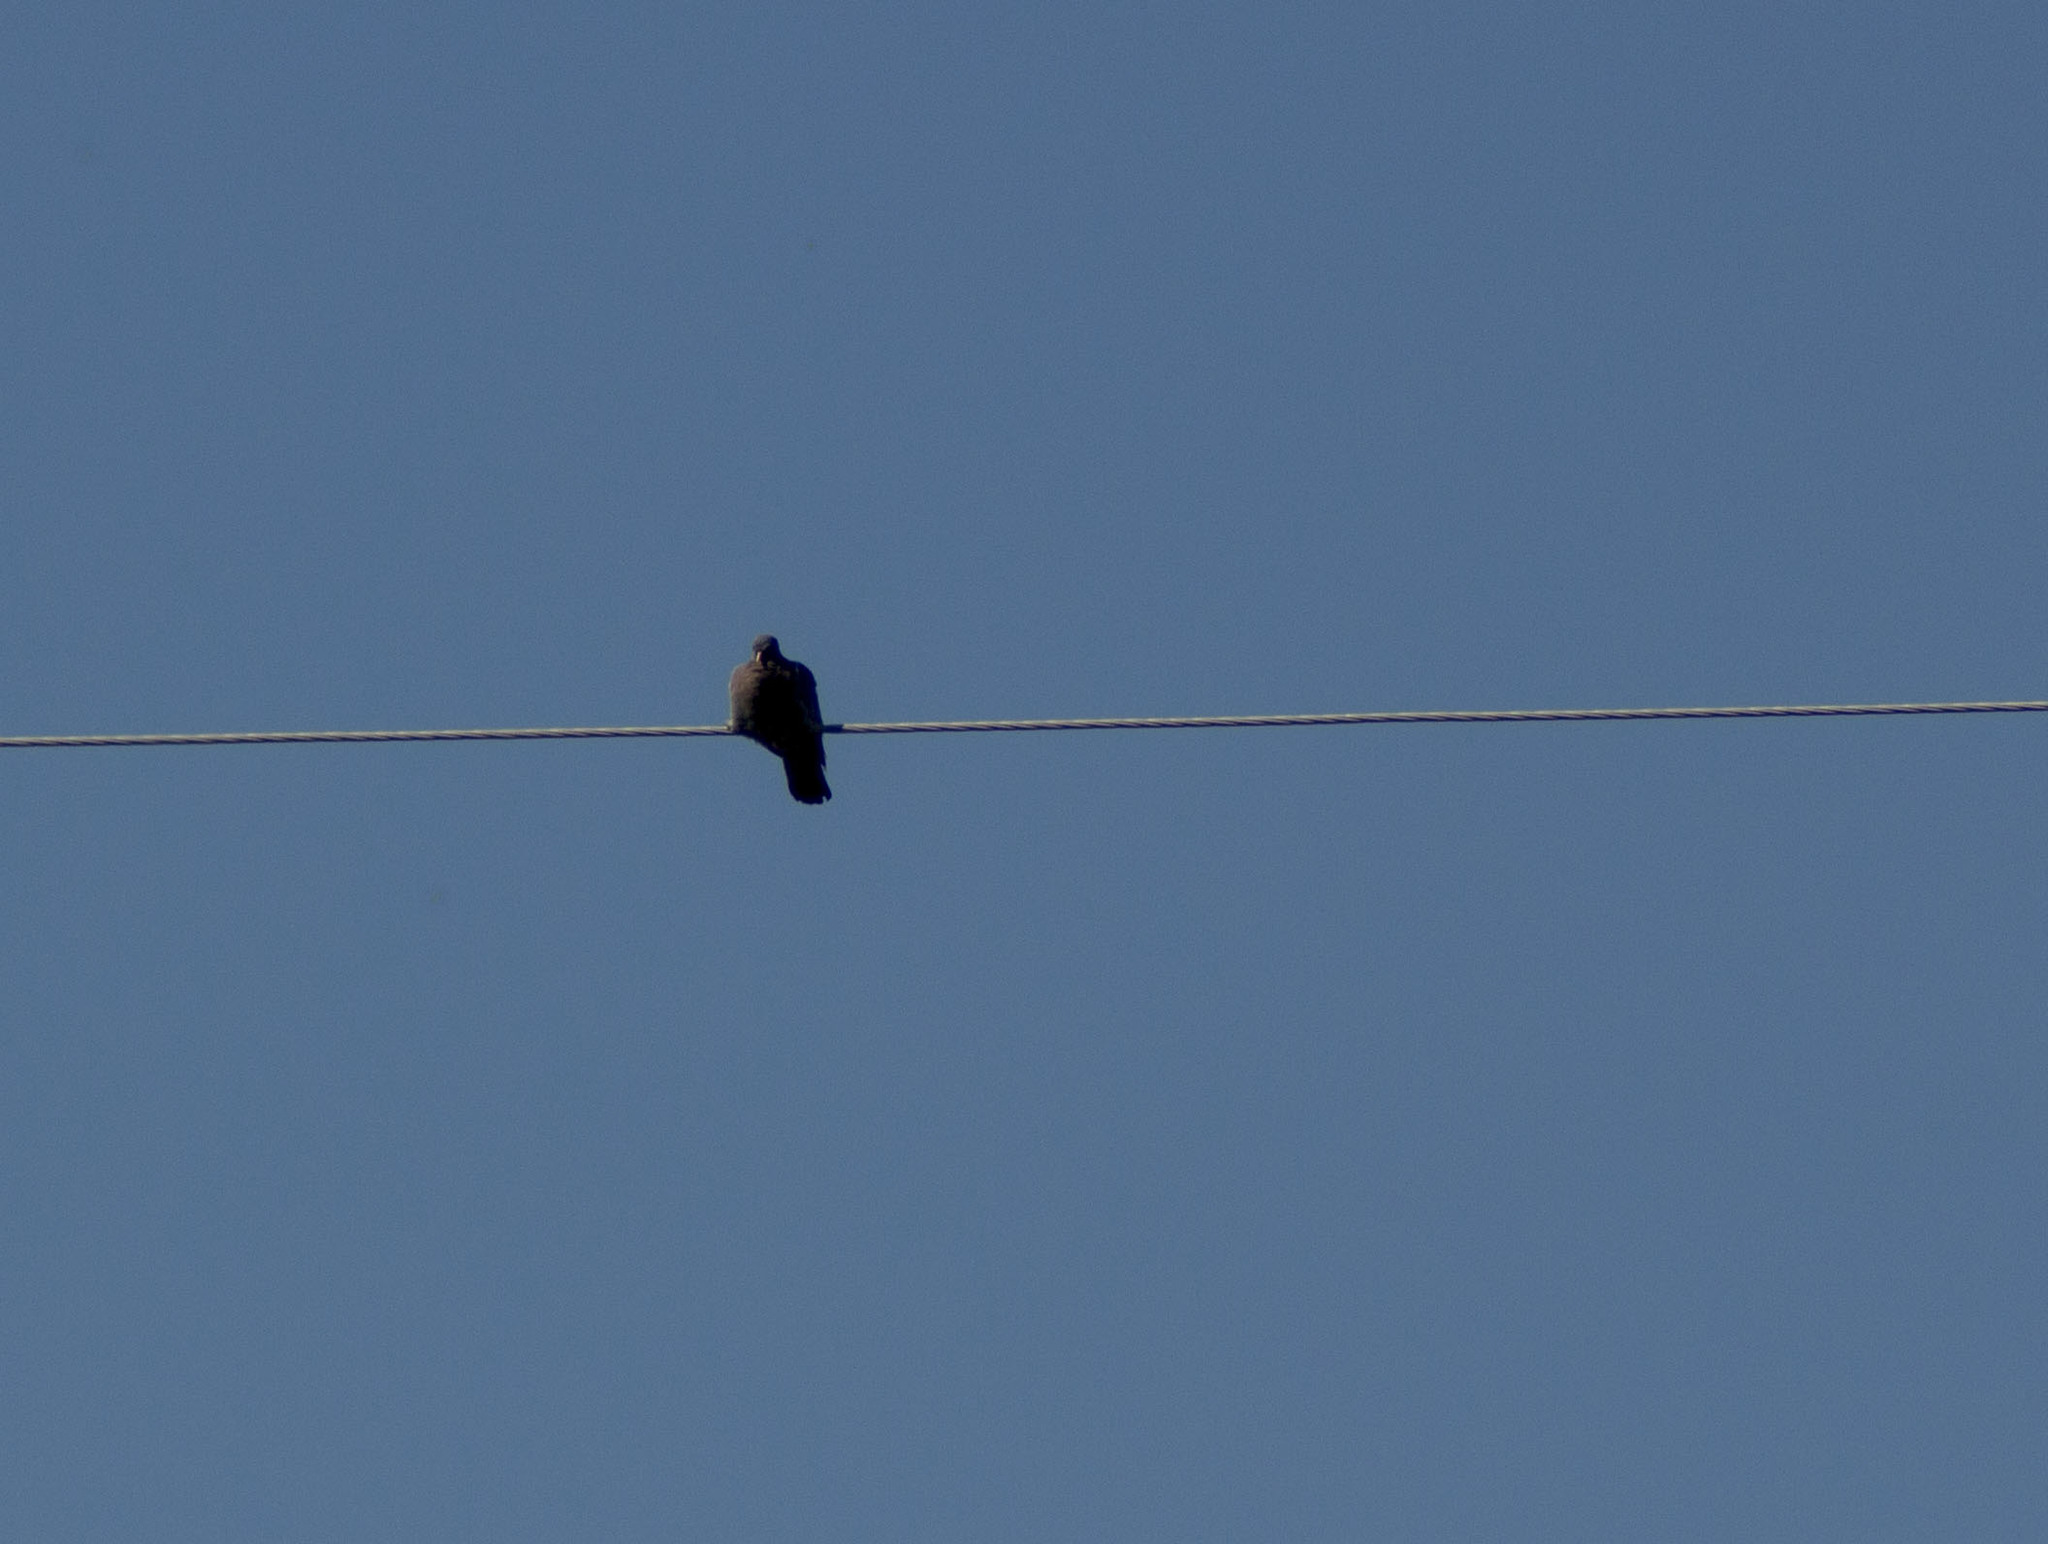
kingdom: Animalia
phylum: Chordata
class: Aves
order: Columbiformes
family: Columbidae
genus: Columba
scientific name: Columba livia
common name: Rock pigeon
